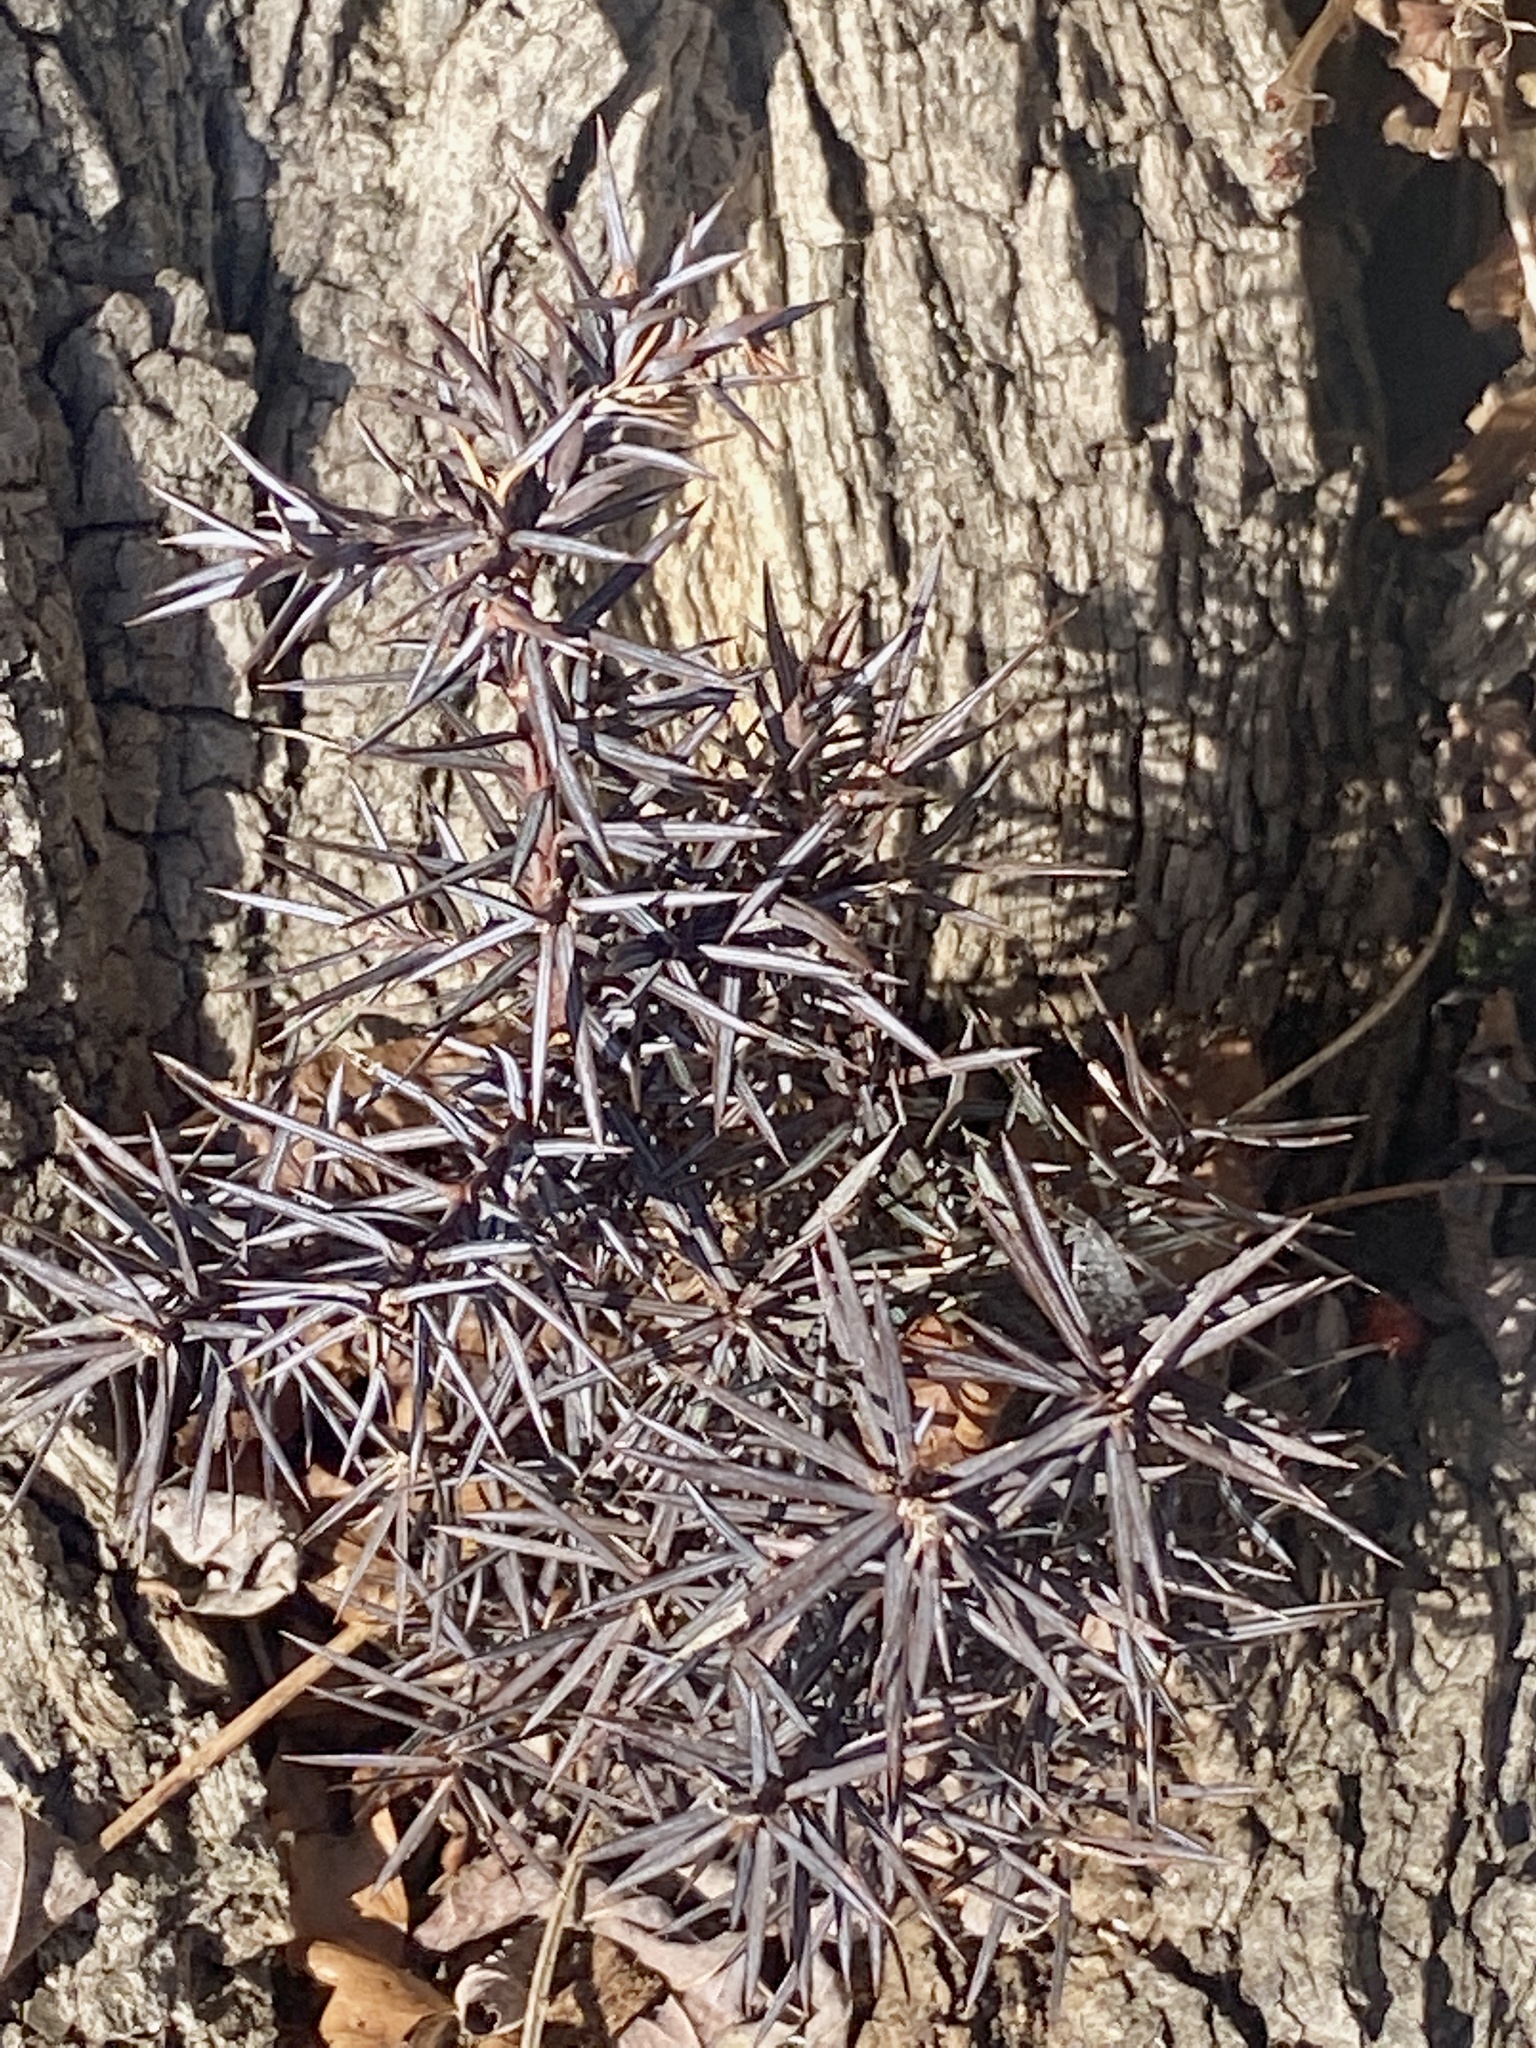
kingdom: Plantae
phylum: Tracheophyta
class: Pinopsida
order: Pinales
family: Cupressaceae
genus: Juniperus
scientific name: Juniperus virginiana
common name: Red juniper
